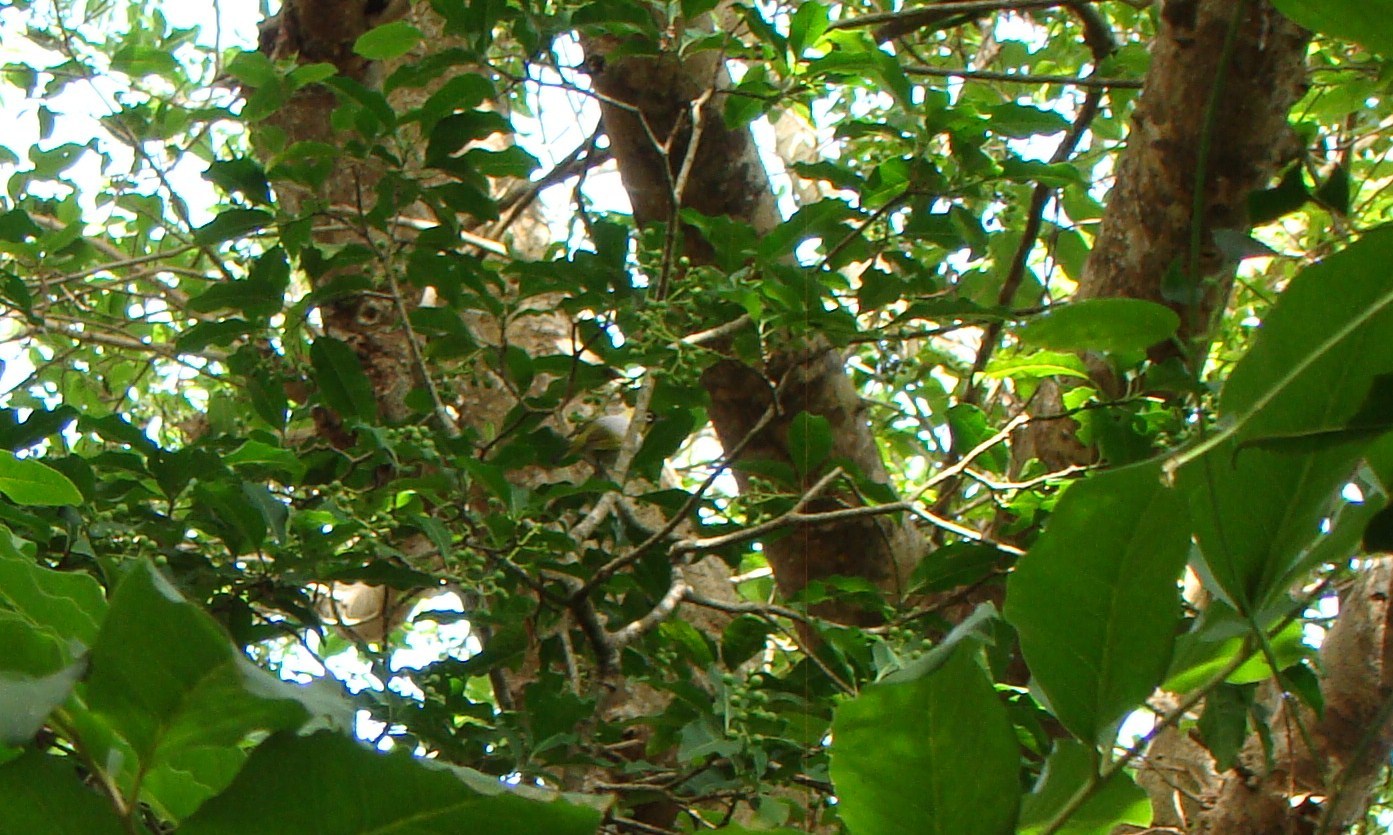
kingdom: Animalia
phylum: Chordata
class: Aves
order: Passeriformes
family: Zosteropidae
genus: Zosterops
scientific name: Zosterops lateralis
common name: Silvereye
